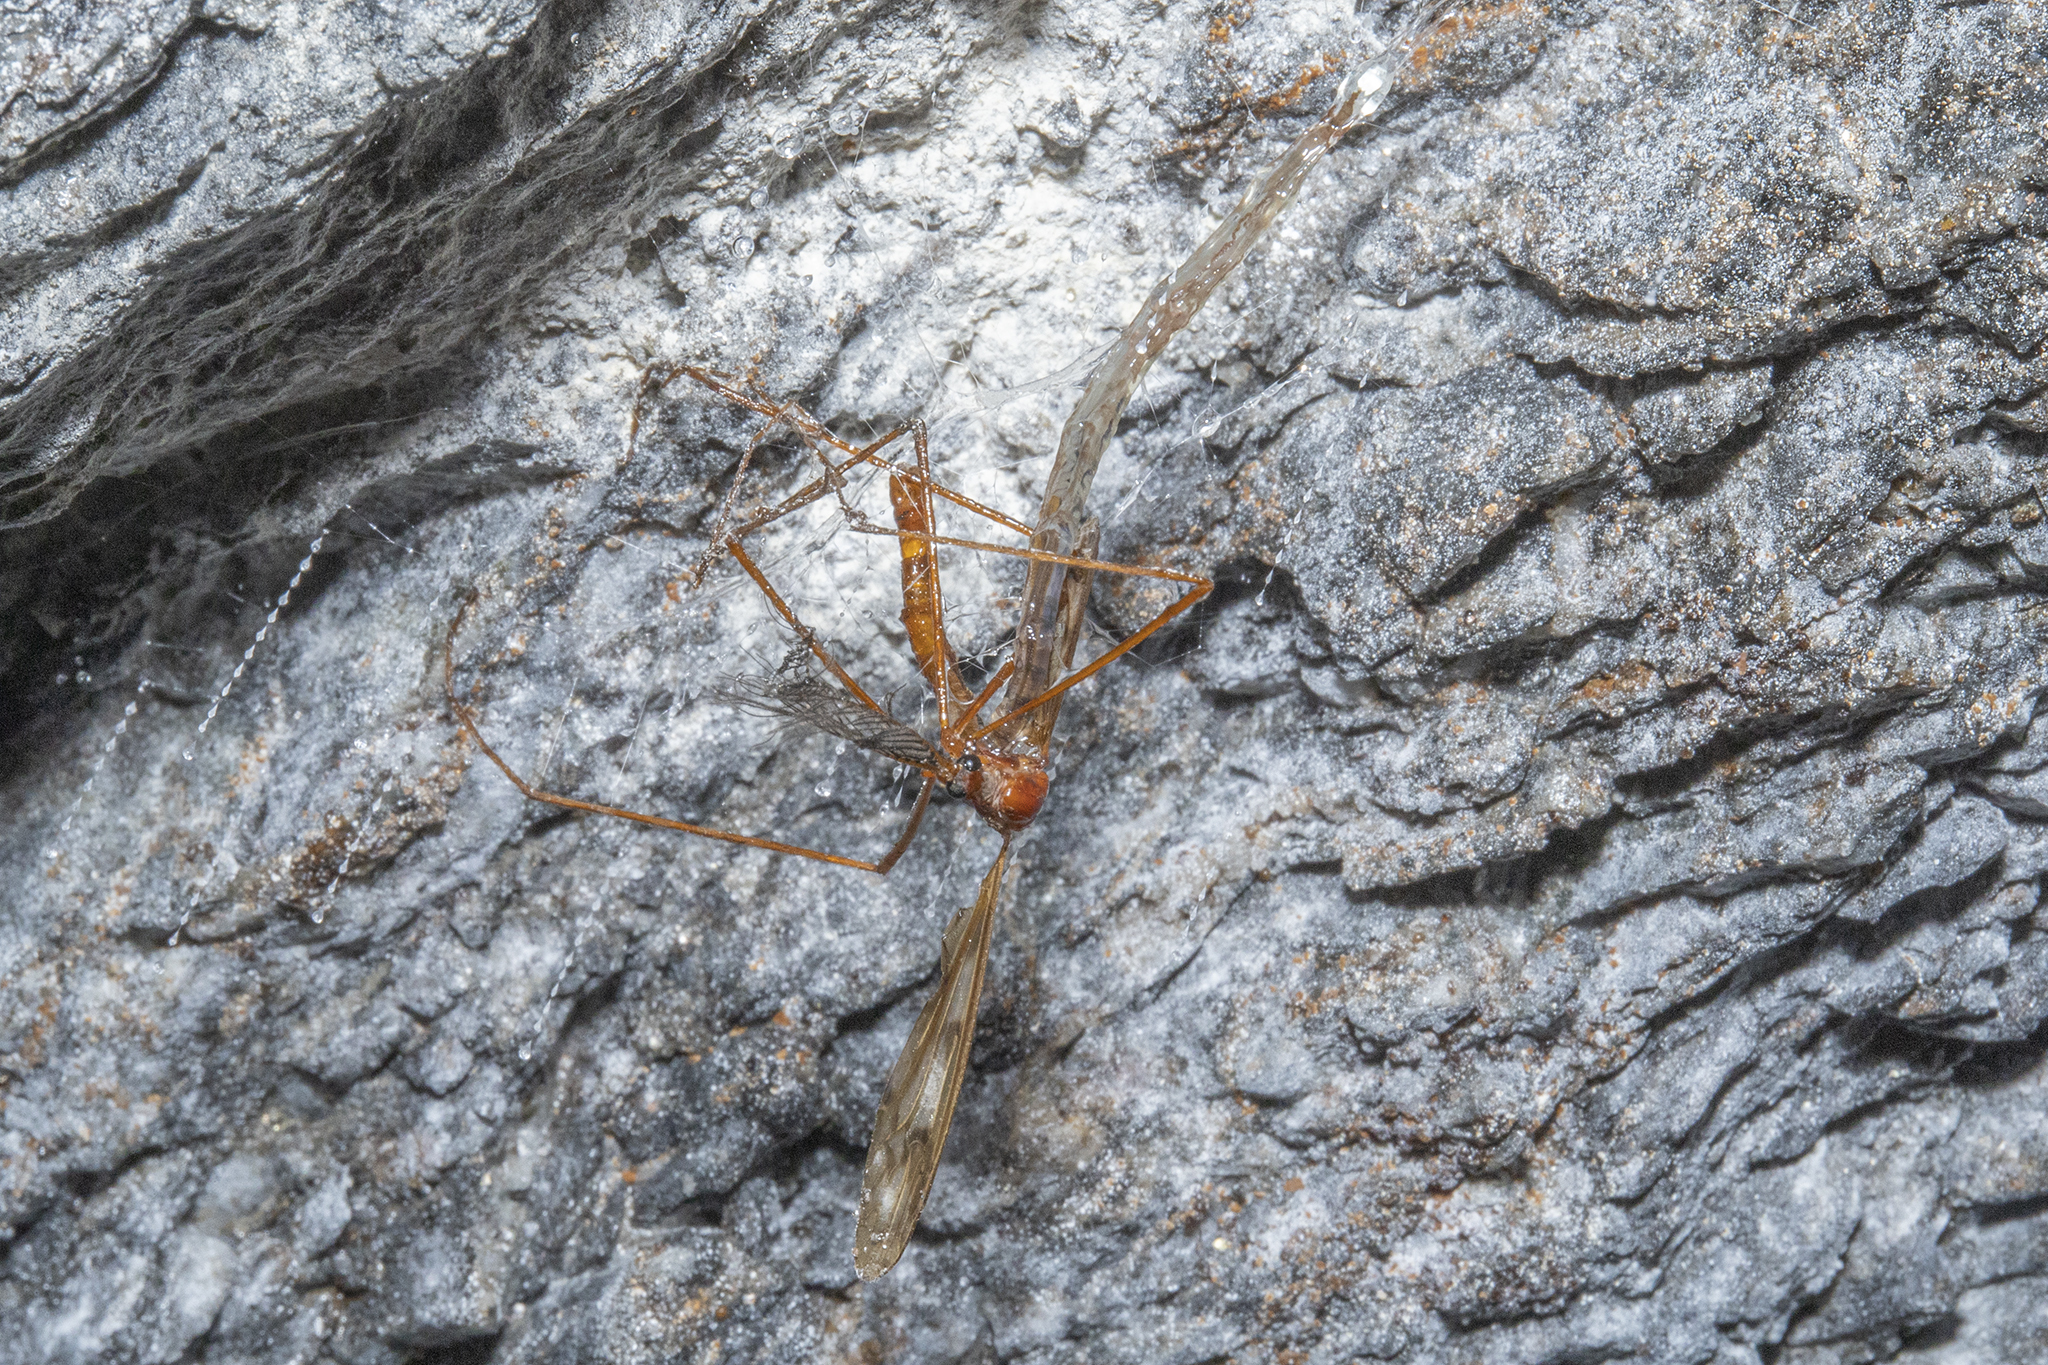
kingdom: Animalia
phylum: Arthropoda
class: Insecta
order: Diptera
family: Keroplatidae
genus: Arachnocampa
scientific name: Arachnocampa luminosa
